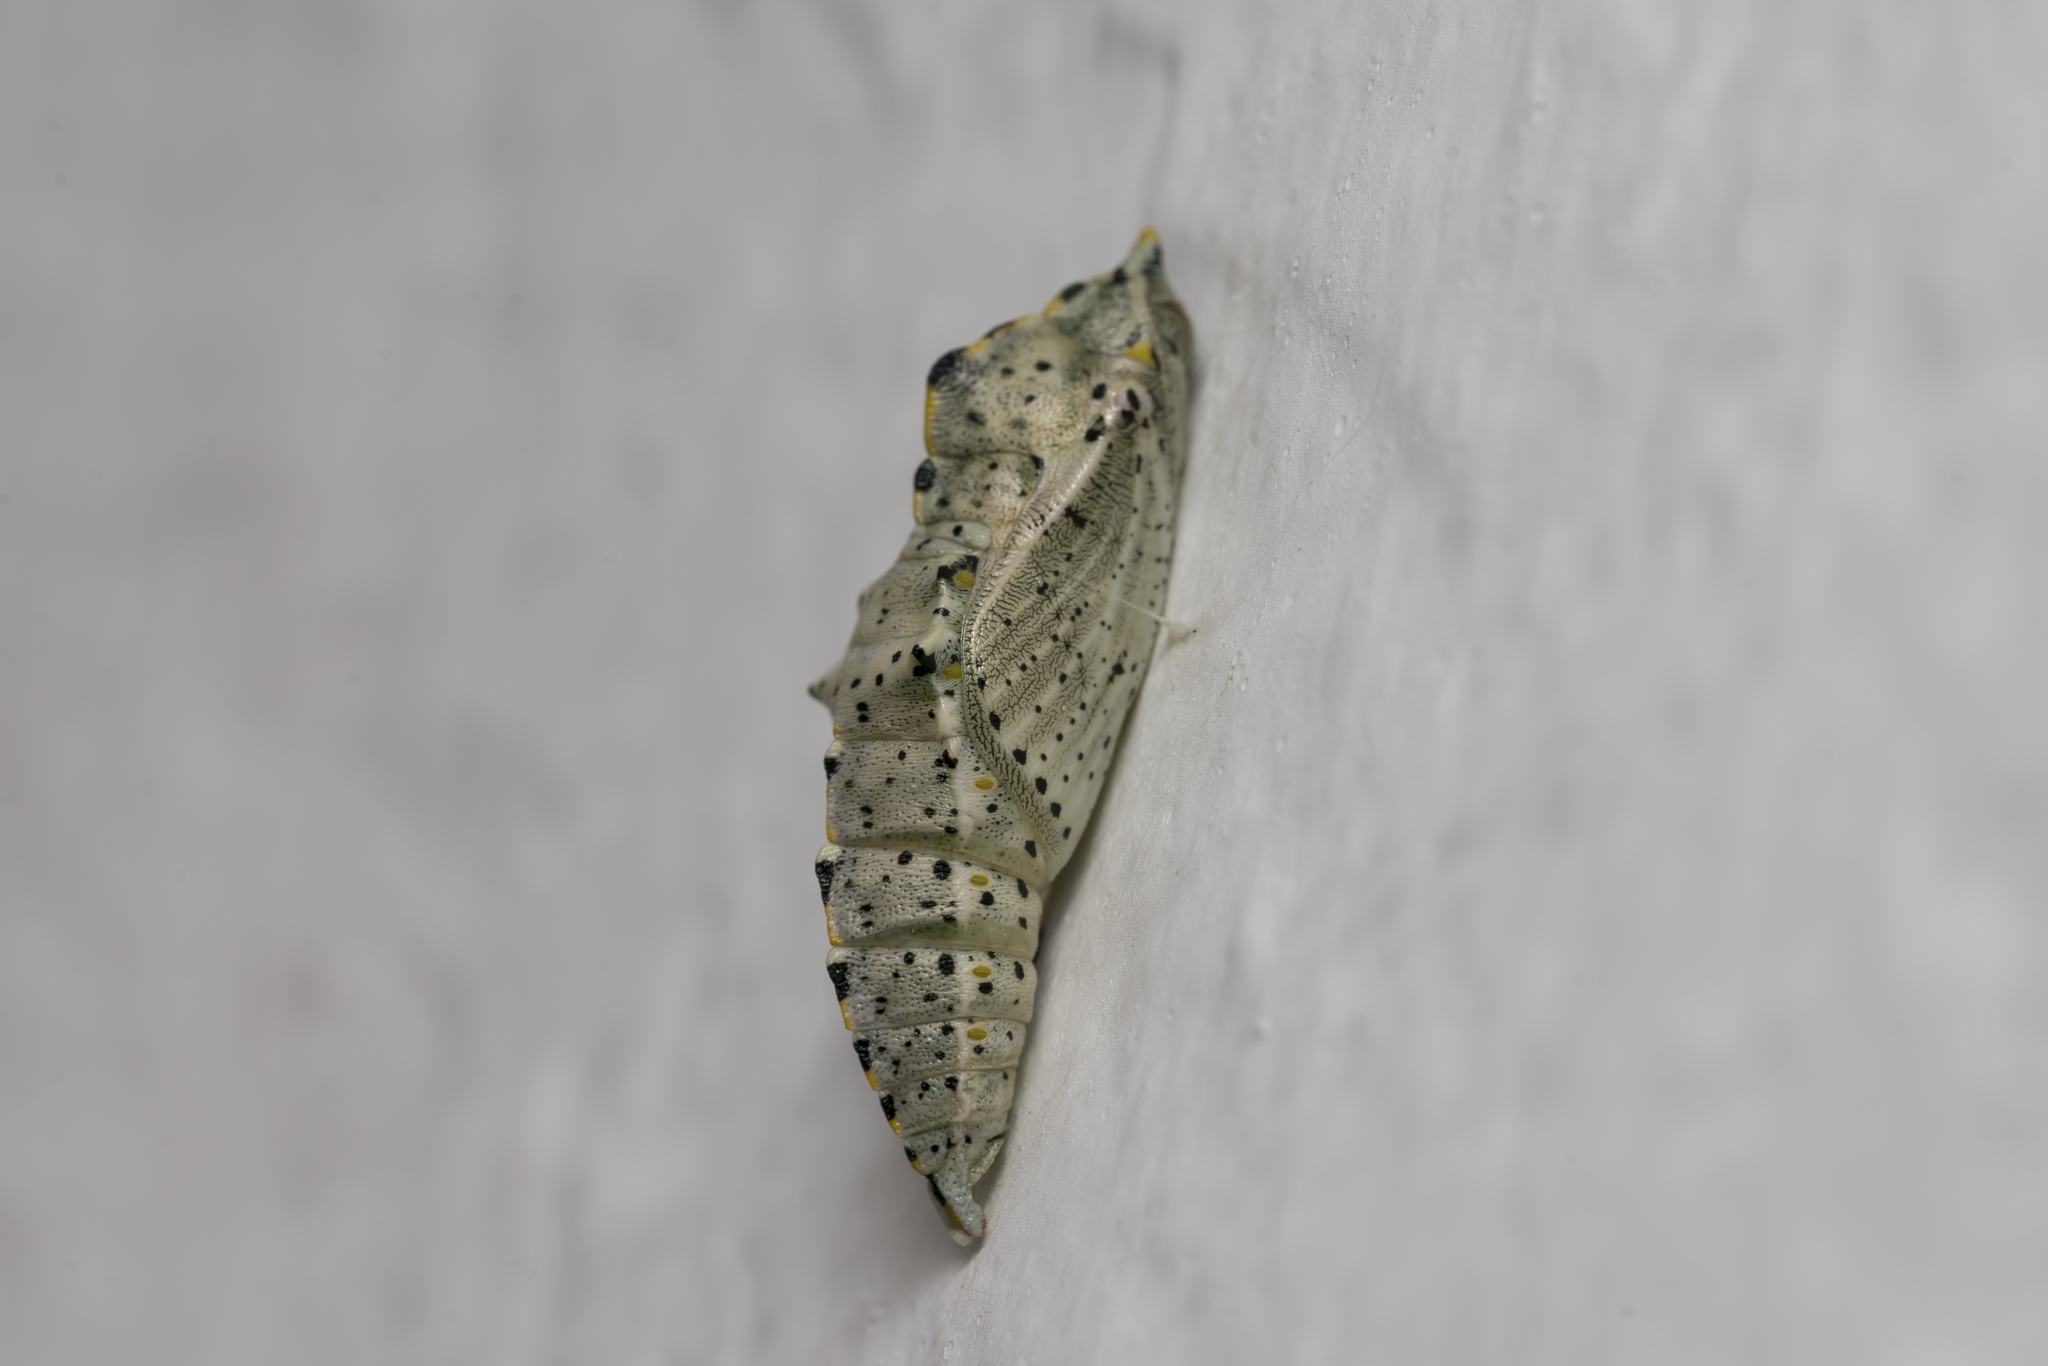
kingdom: Animalia
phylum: Arthropoda
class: Insecta
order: Lepidoptera
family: Pieridae
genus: Pieris
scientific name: Pieris brassicae
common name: Large white
